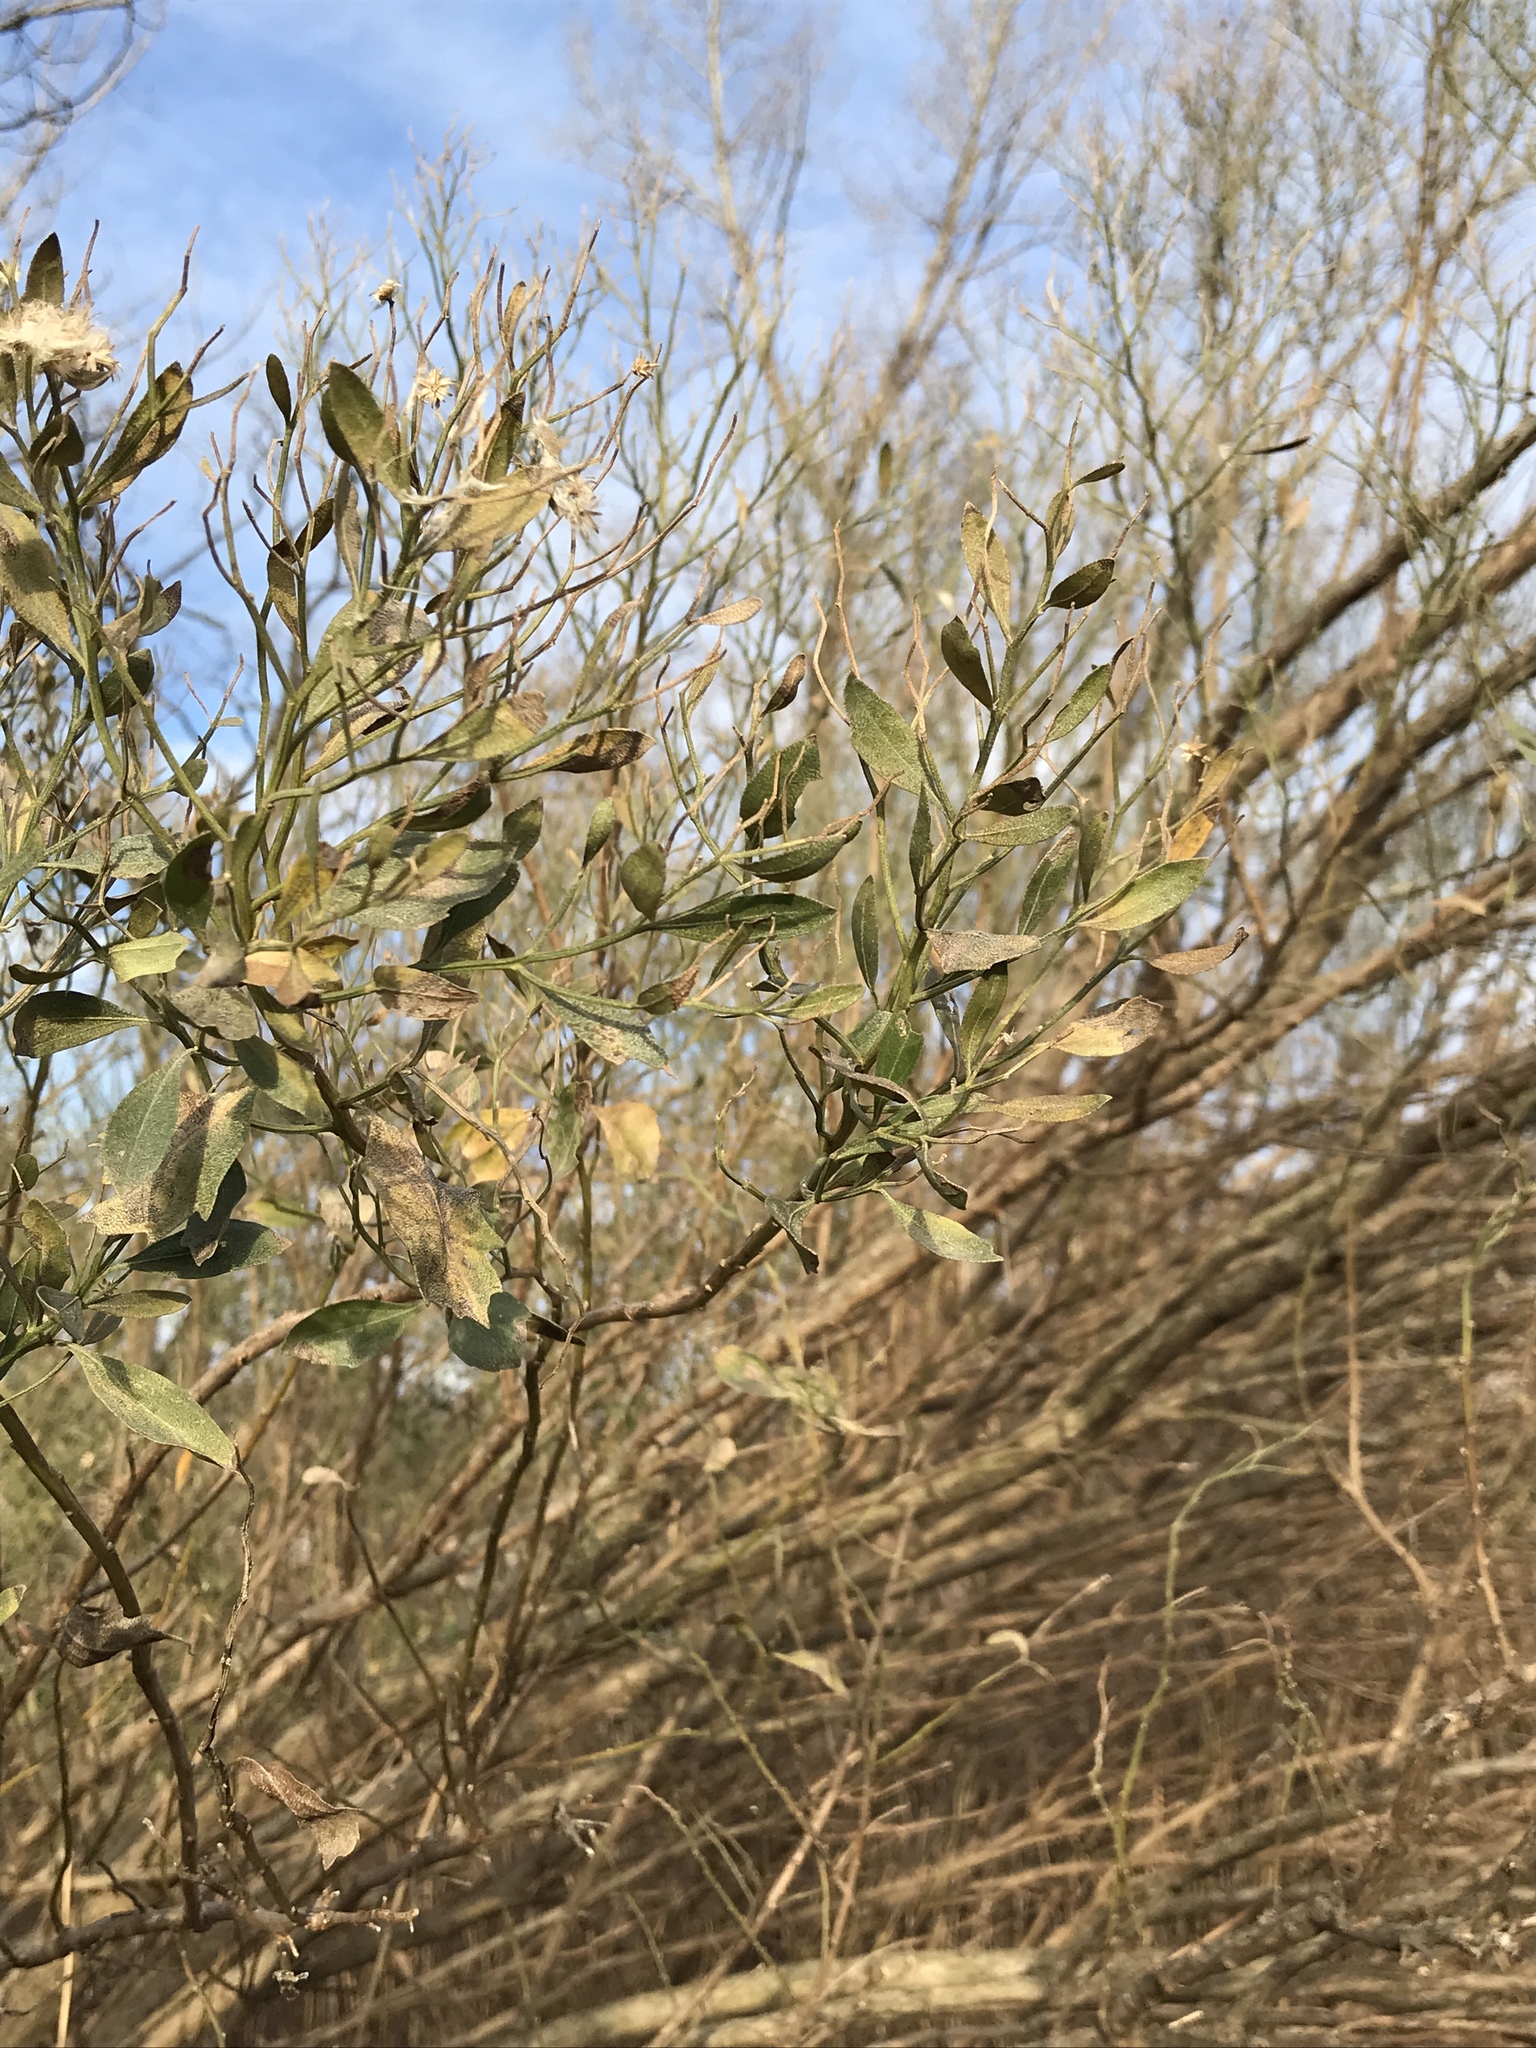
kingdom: Plantae
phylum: Tracheophyta
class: Magnoliopsida
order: Asterales
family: Asteraceae
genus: Baccharis
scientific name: Baccharis halimifolia
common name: Eastern baccharis
